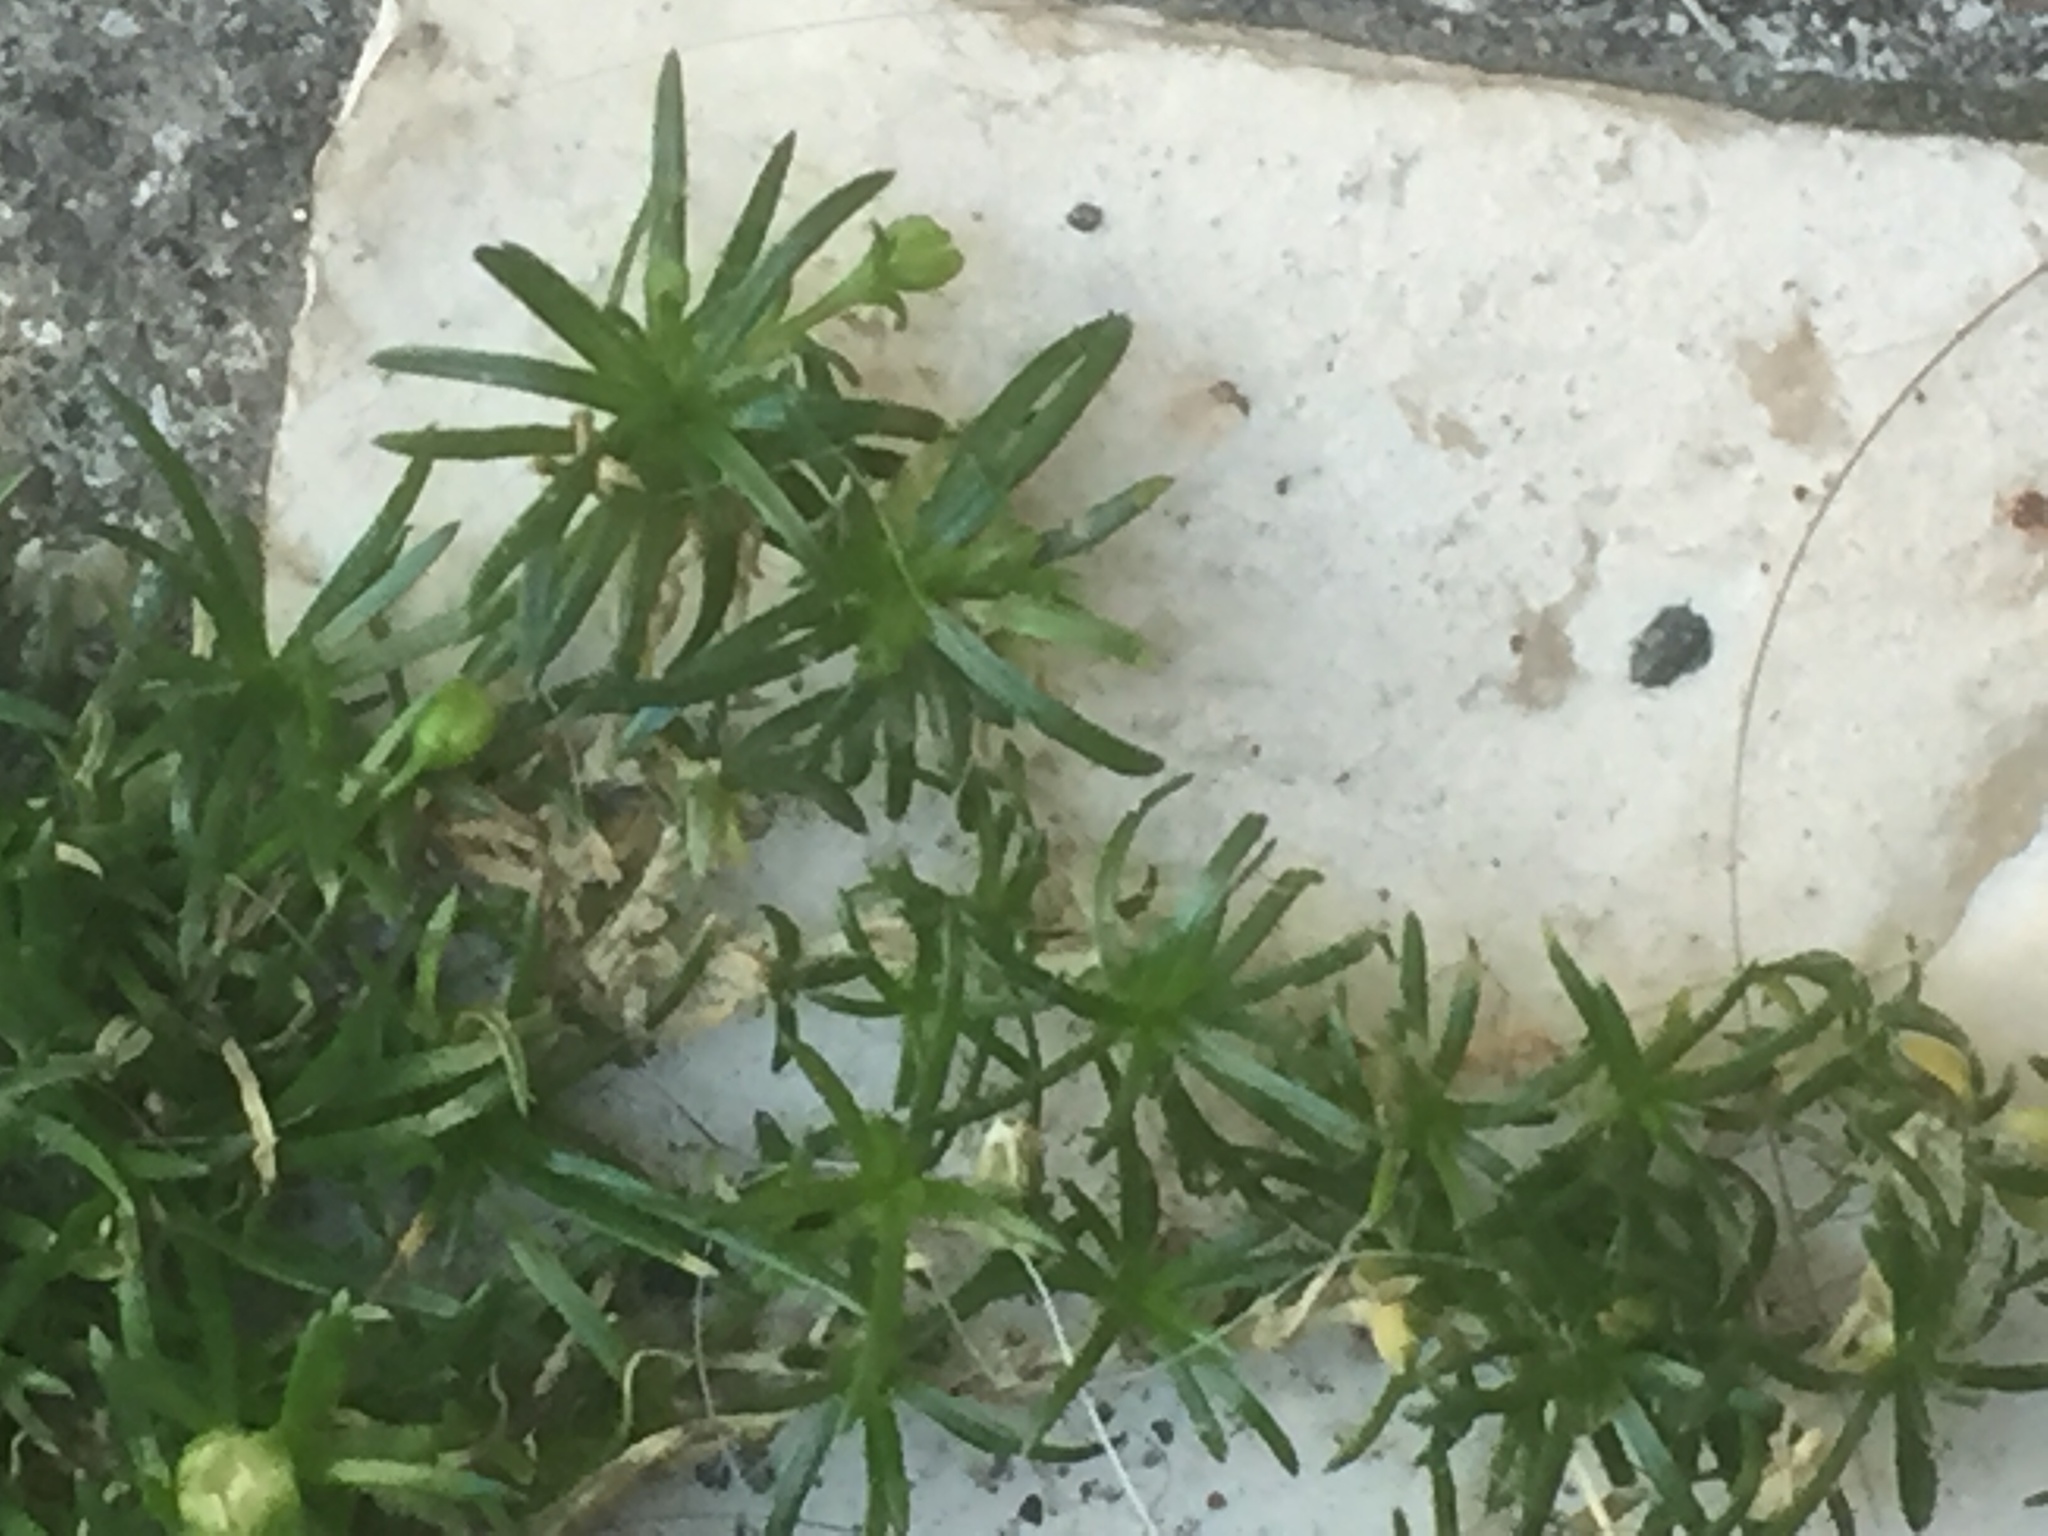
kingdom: Plantae
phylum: Tracheophyta
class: Magnoliopsida
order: Caryophyllales
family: Caryophyllaceae
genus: Sagina
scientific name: Sagina procumbens
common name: Procumbent pearlwort
